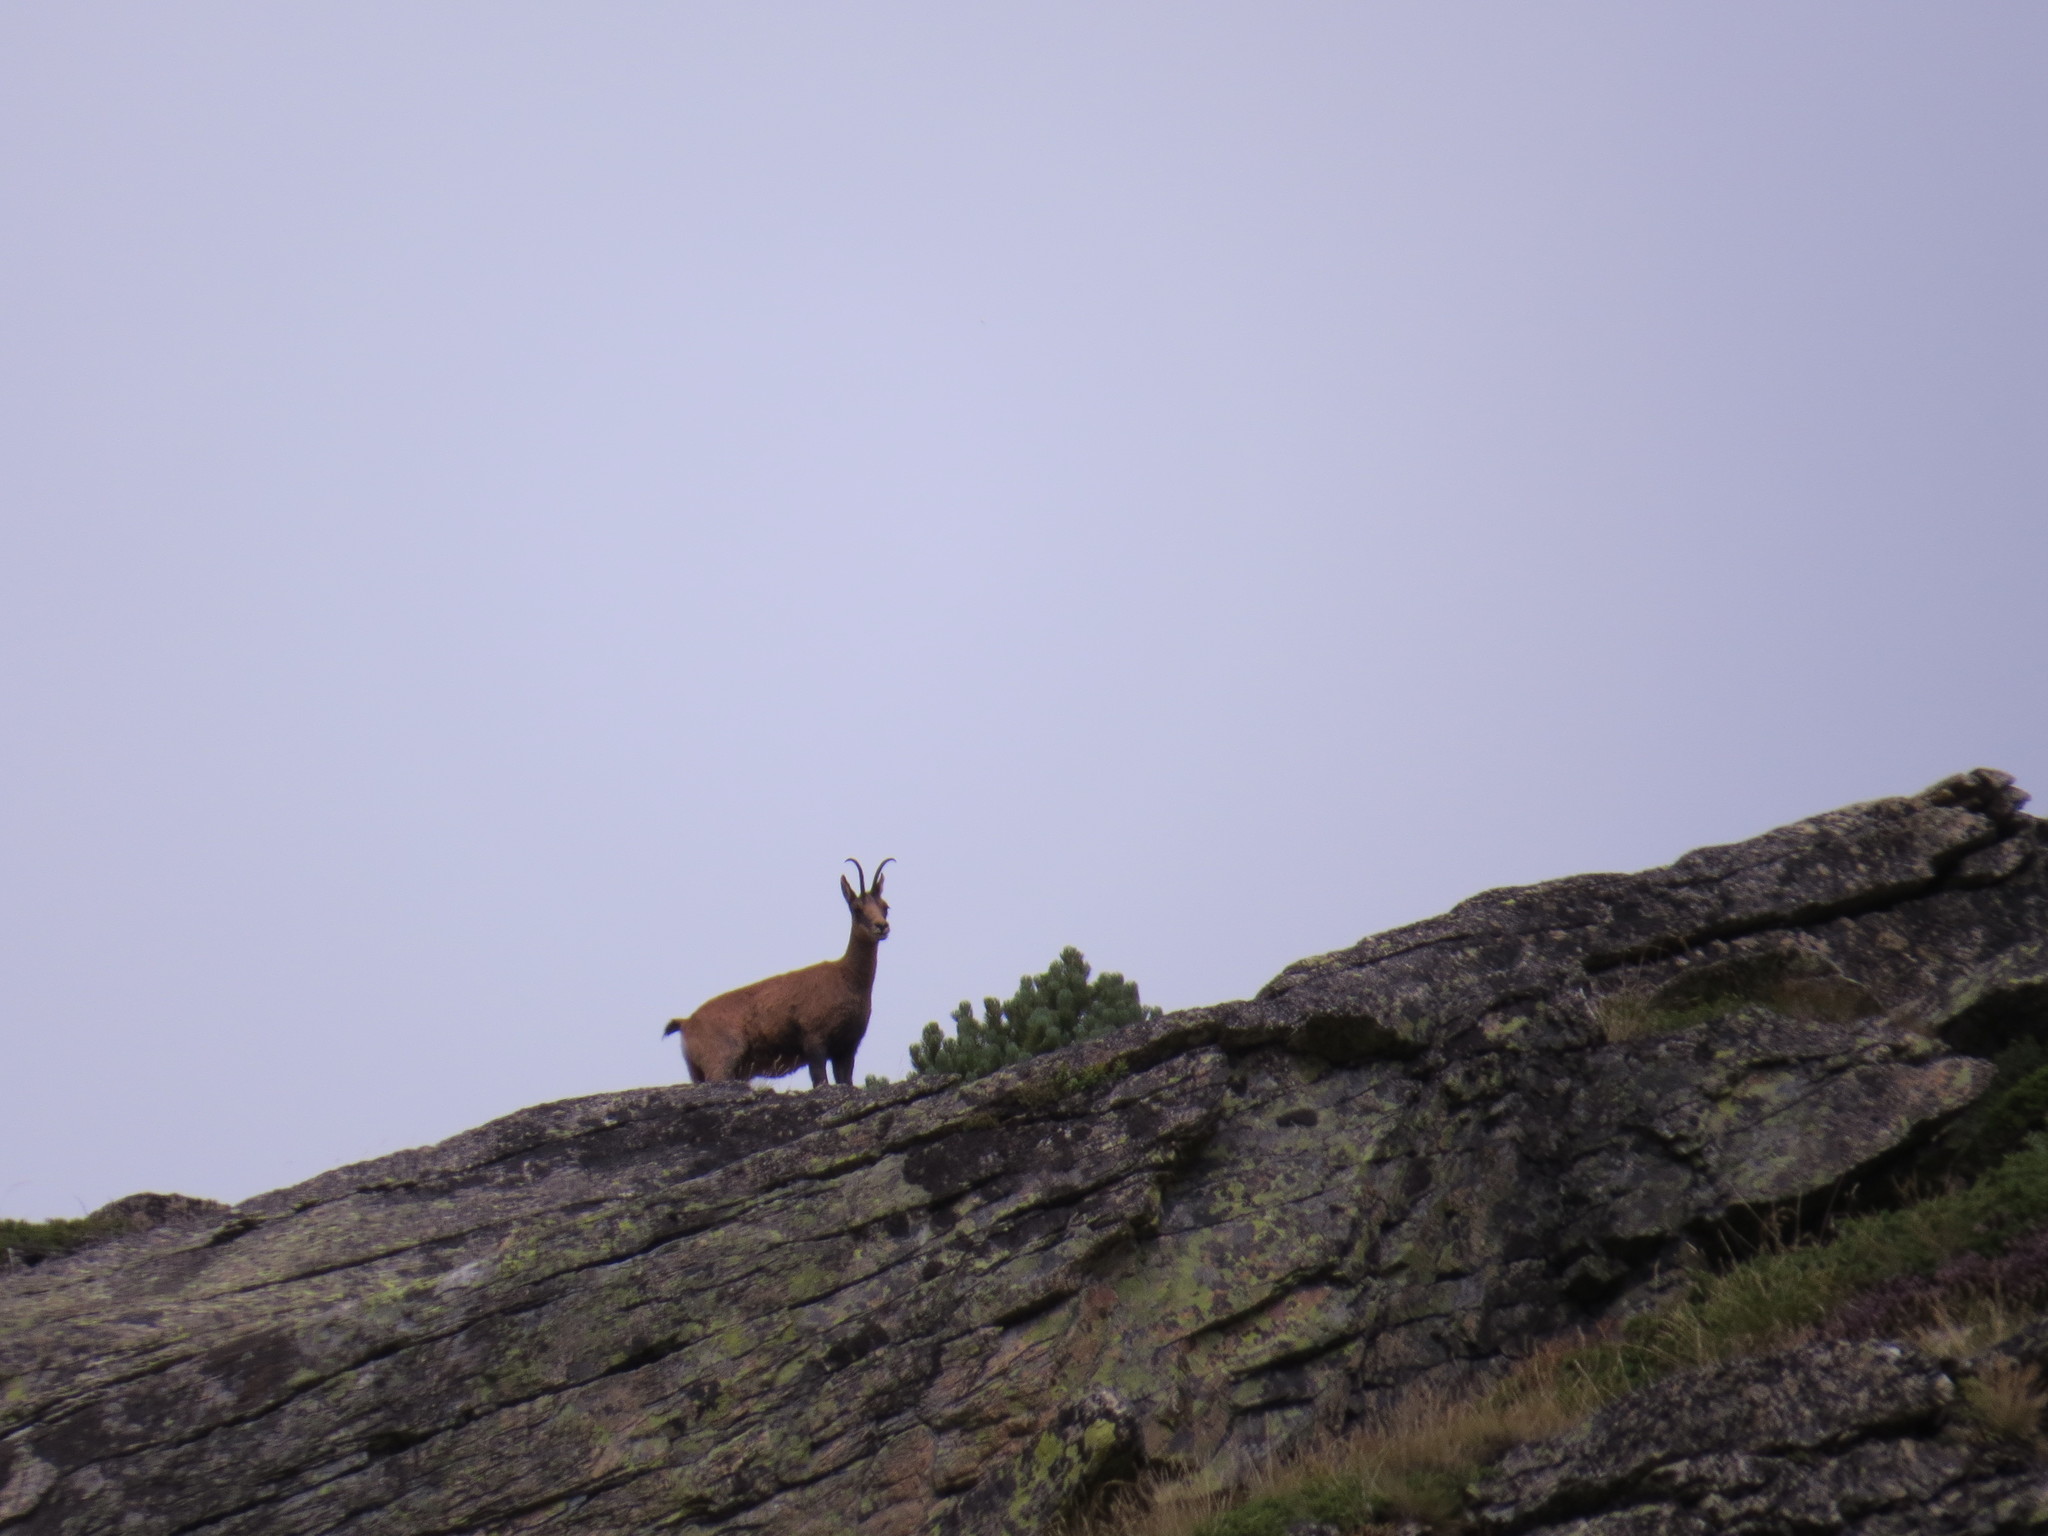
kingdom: Animalia
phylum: Chordata
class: Mammalia
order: Artiodactyla
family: Bovidae
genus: Rupicapra
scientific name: Rupicapra pyrenaica
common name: Pyrenean chamois
